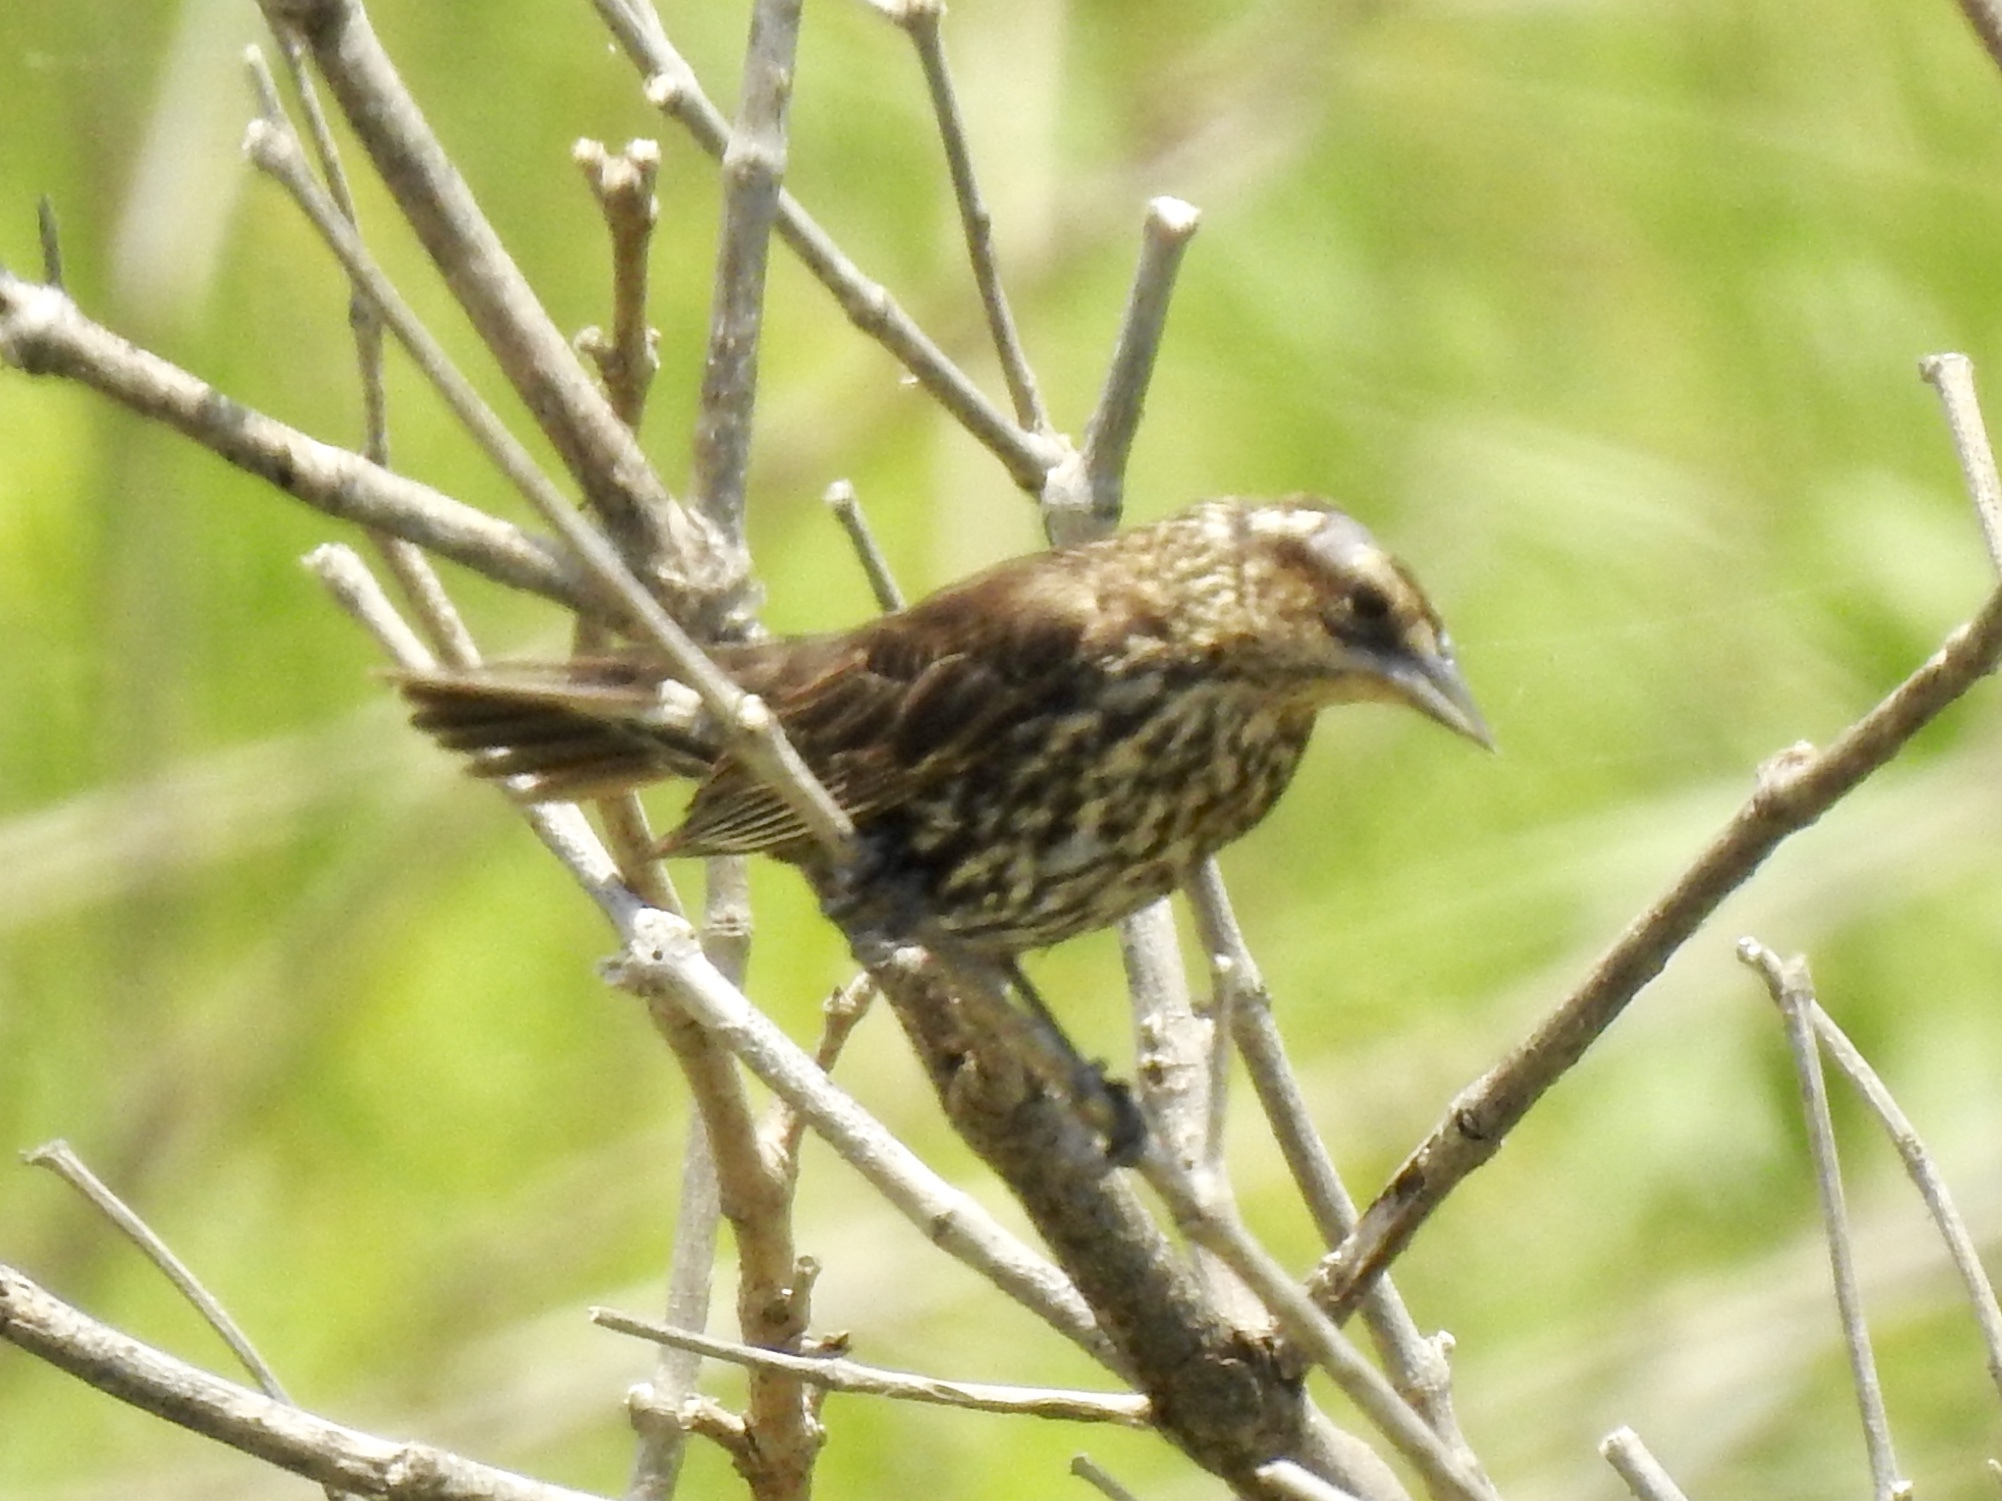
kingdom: Animalia
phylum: Chordata
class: Aves
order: Passeriformes
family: Icteridae
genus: Agelaius
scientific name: Agelaius phoeniceus
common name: Red-winged blackbird
